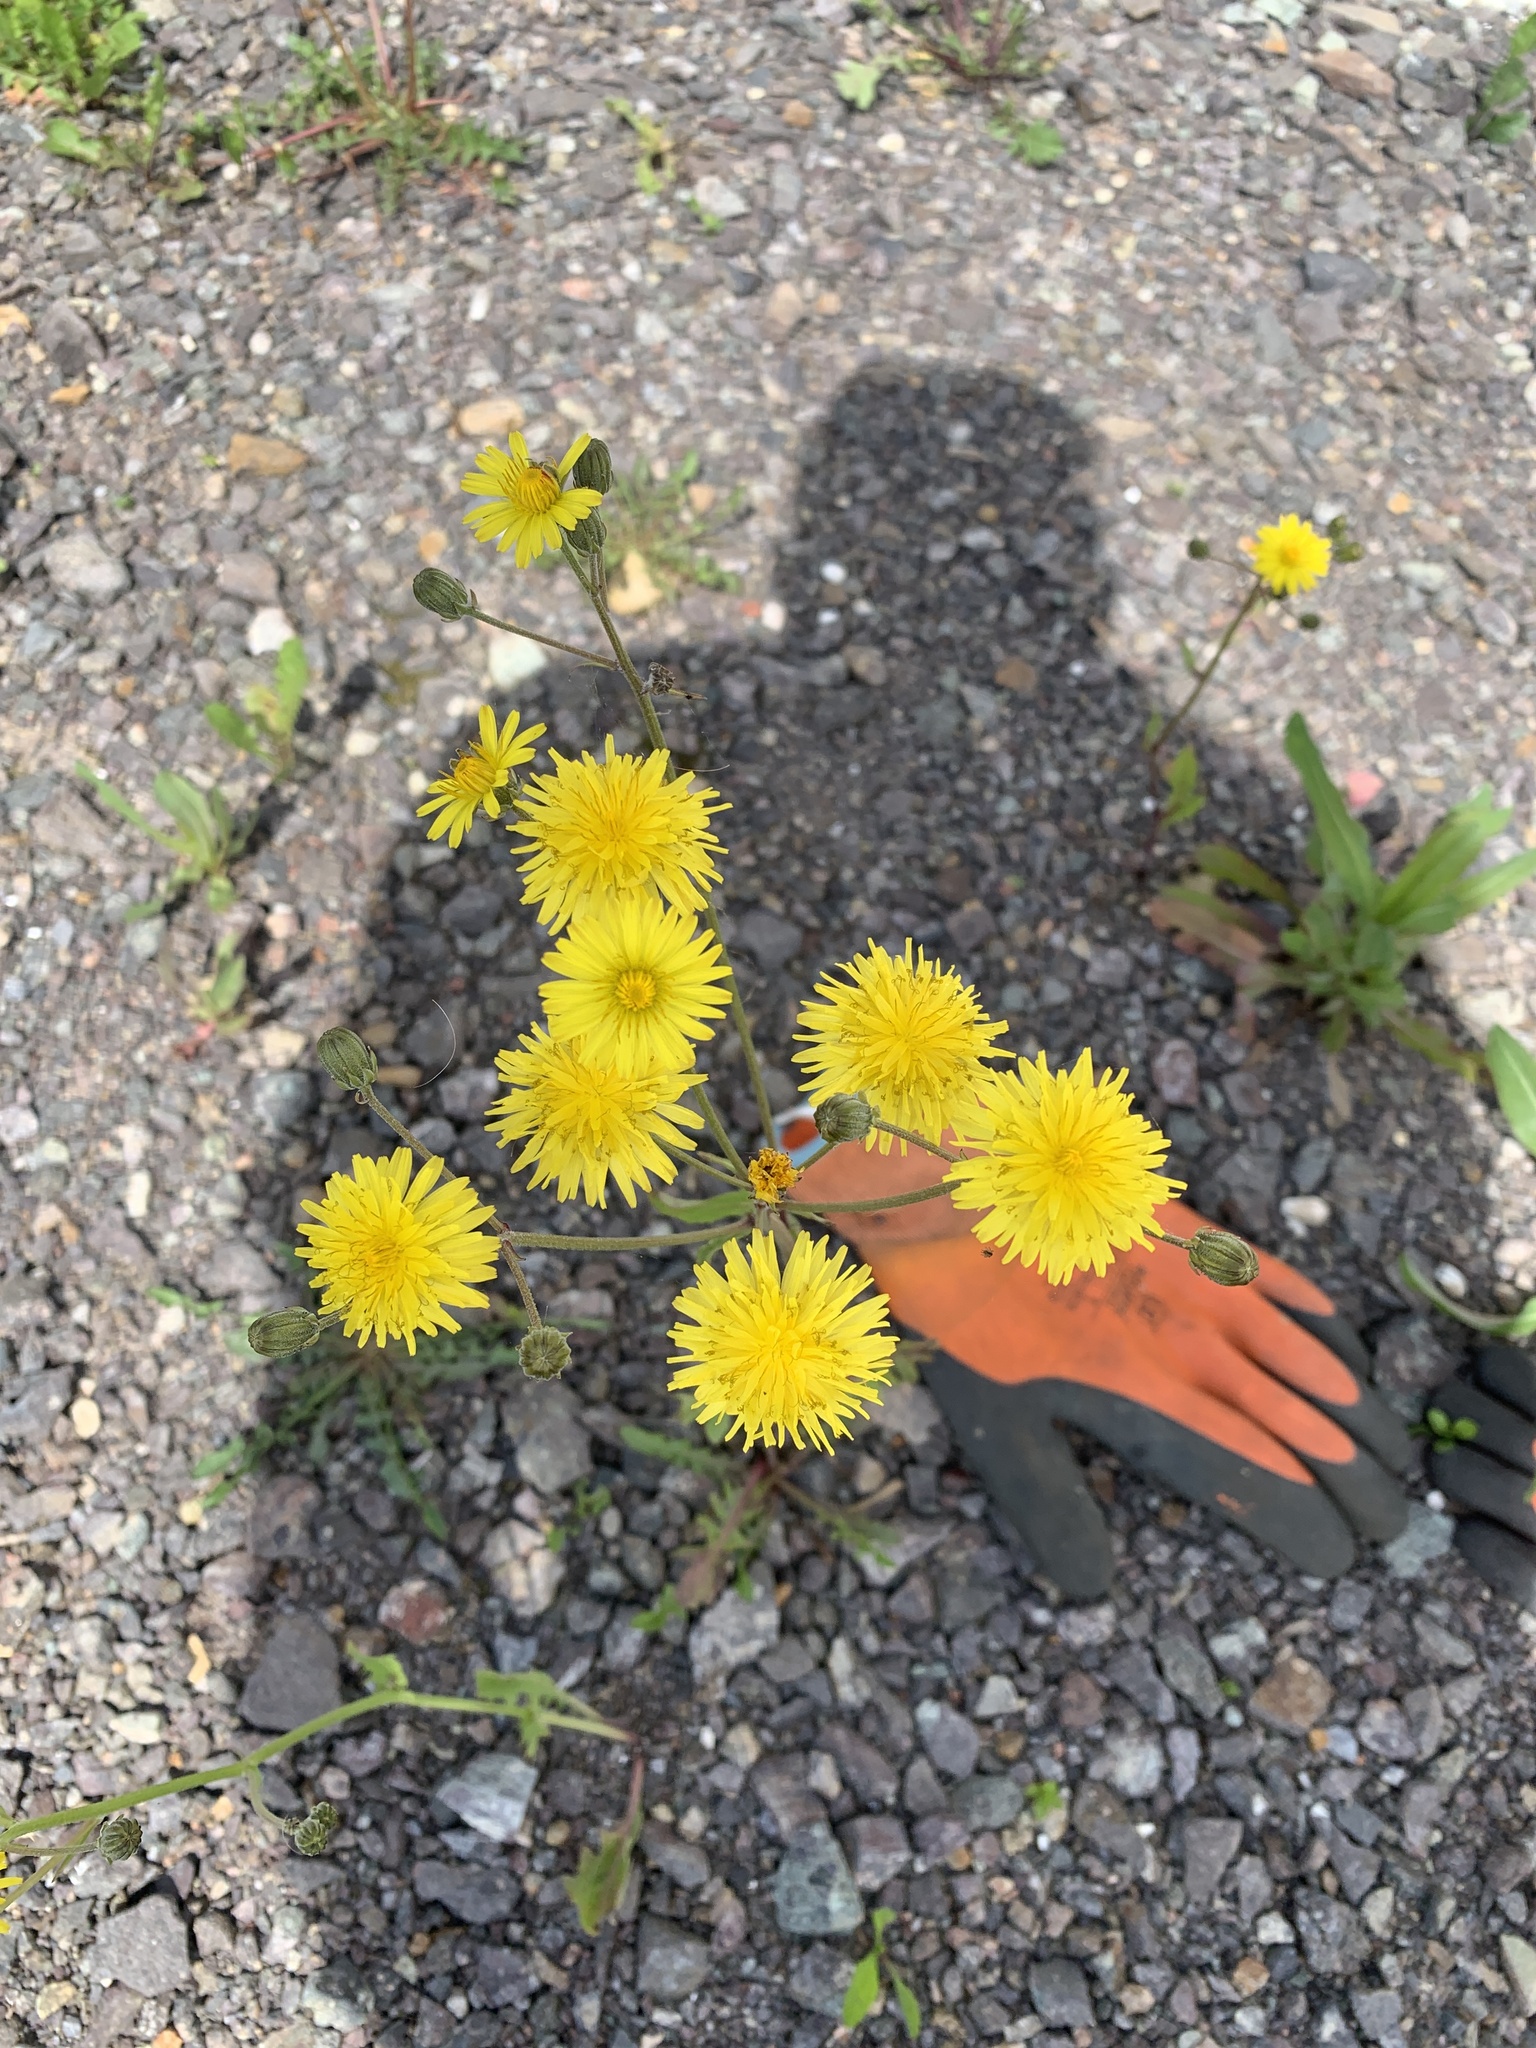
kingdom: Plantae
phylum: Tracheophyta
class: Magnoliopsida
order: Asterales
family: Asteraceae
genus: Crepis
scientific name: Crepis vesicaria
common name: Beaked hawksbeard
